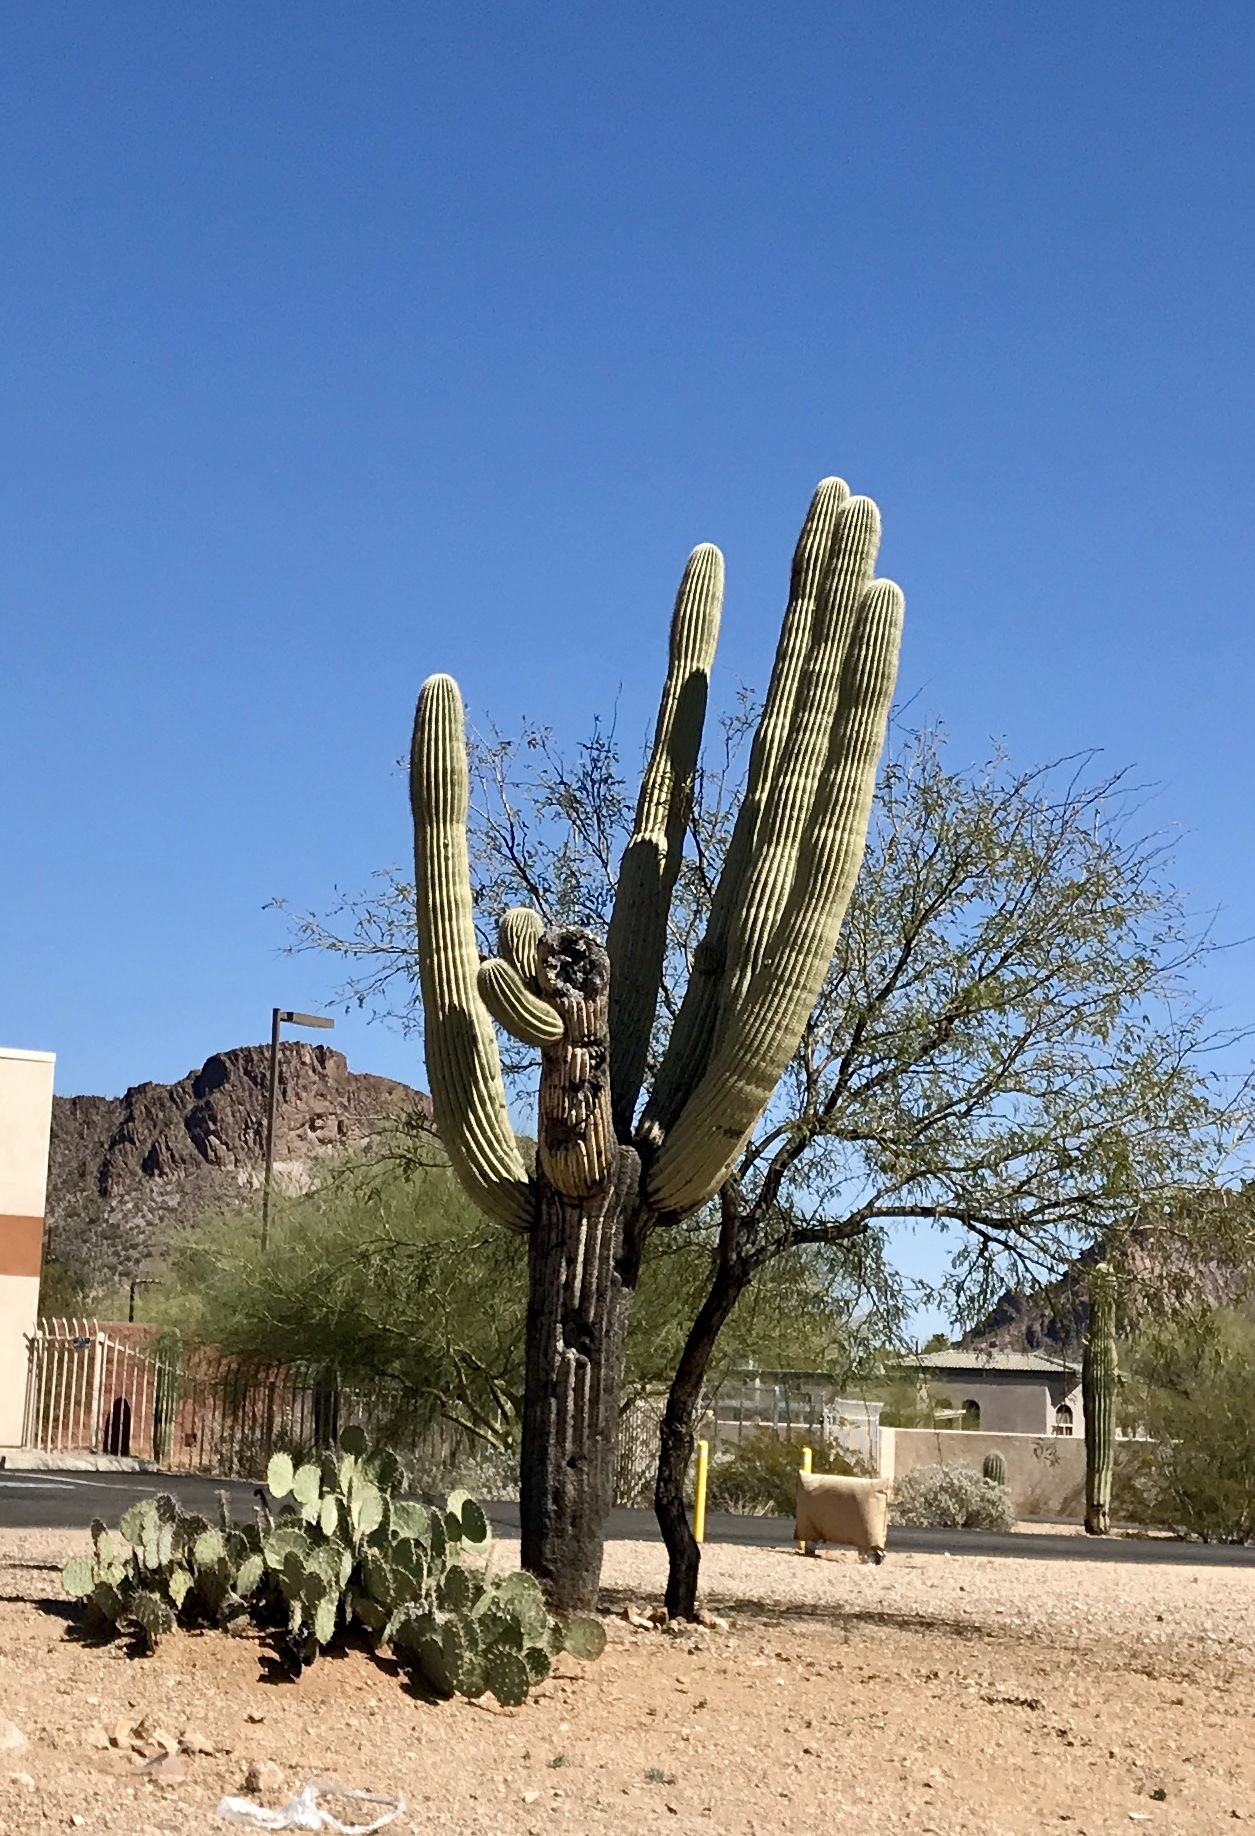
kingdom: Plantae
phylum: Tracheophyta
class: Magnoliopsida
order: Caryophyllales
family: Cactaceae
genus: Carnegiea
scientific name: Carnegiea gigantea
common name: Saguaro
